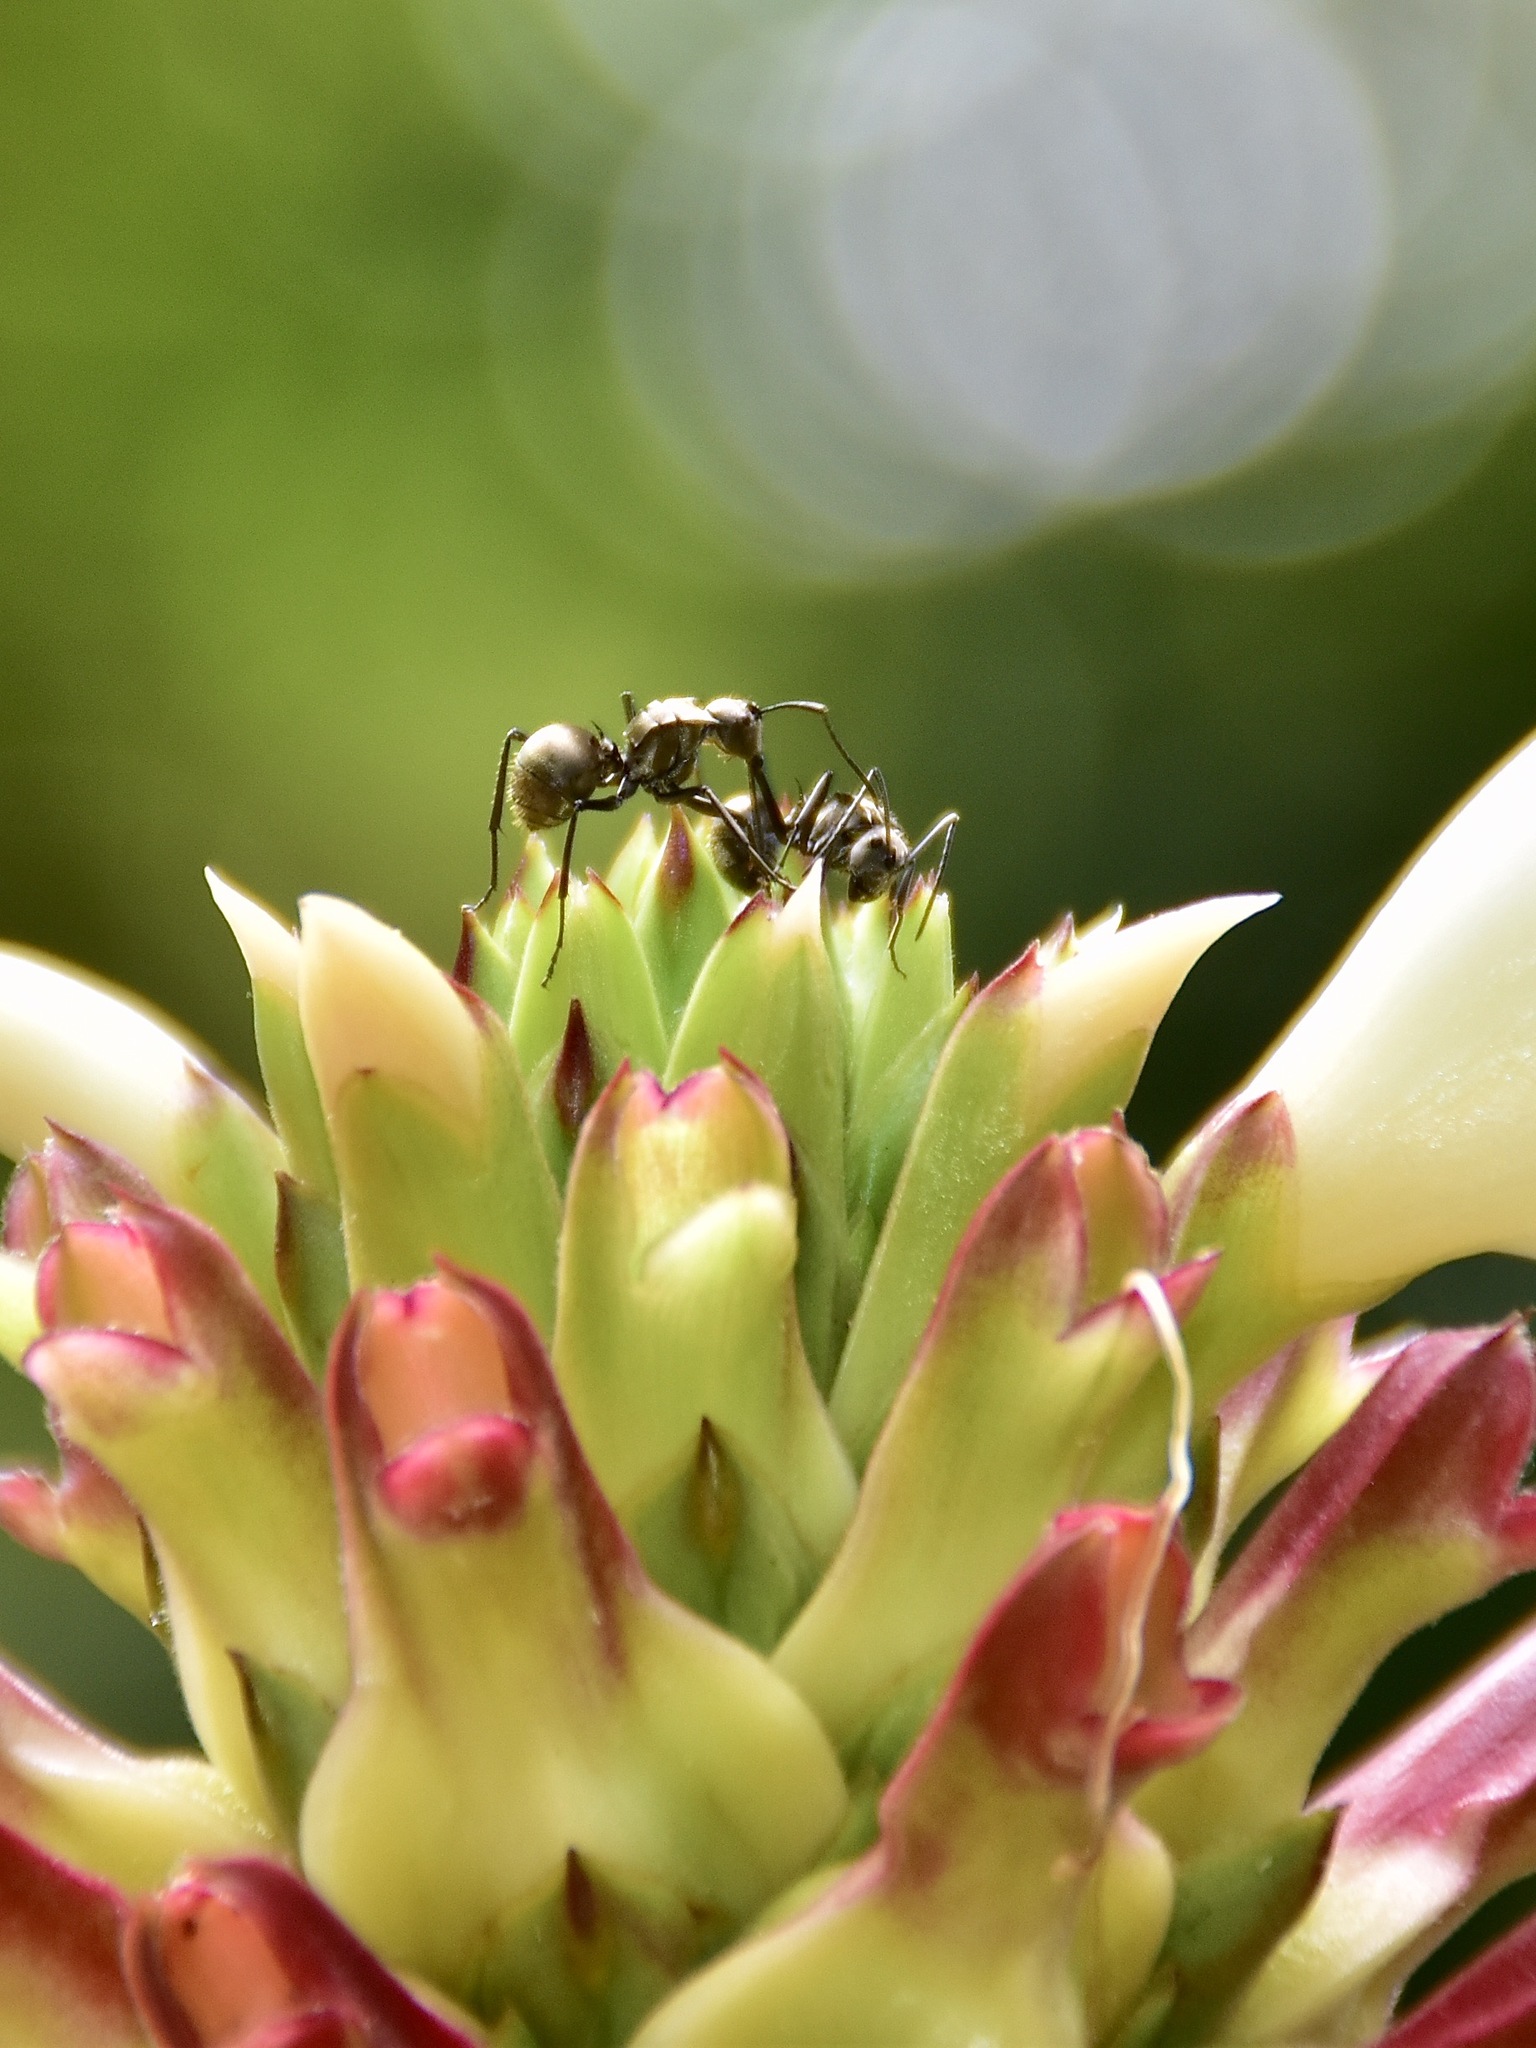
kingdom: Animalia
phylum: Arthropoda
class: Insecta
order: Hymenoptera
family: Formicidae
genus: Polyrhachis
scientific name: Polyrhachis proxima
